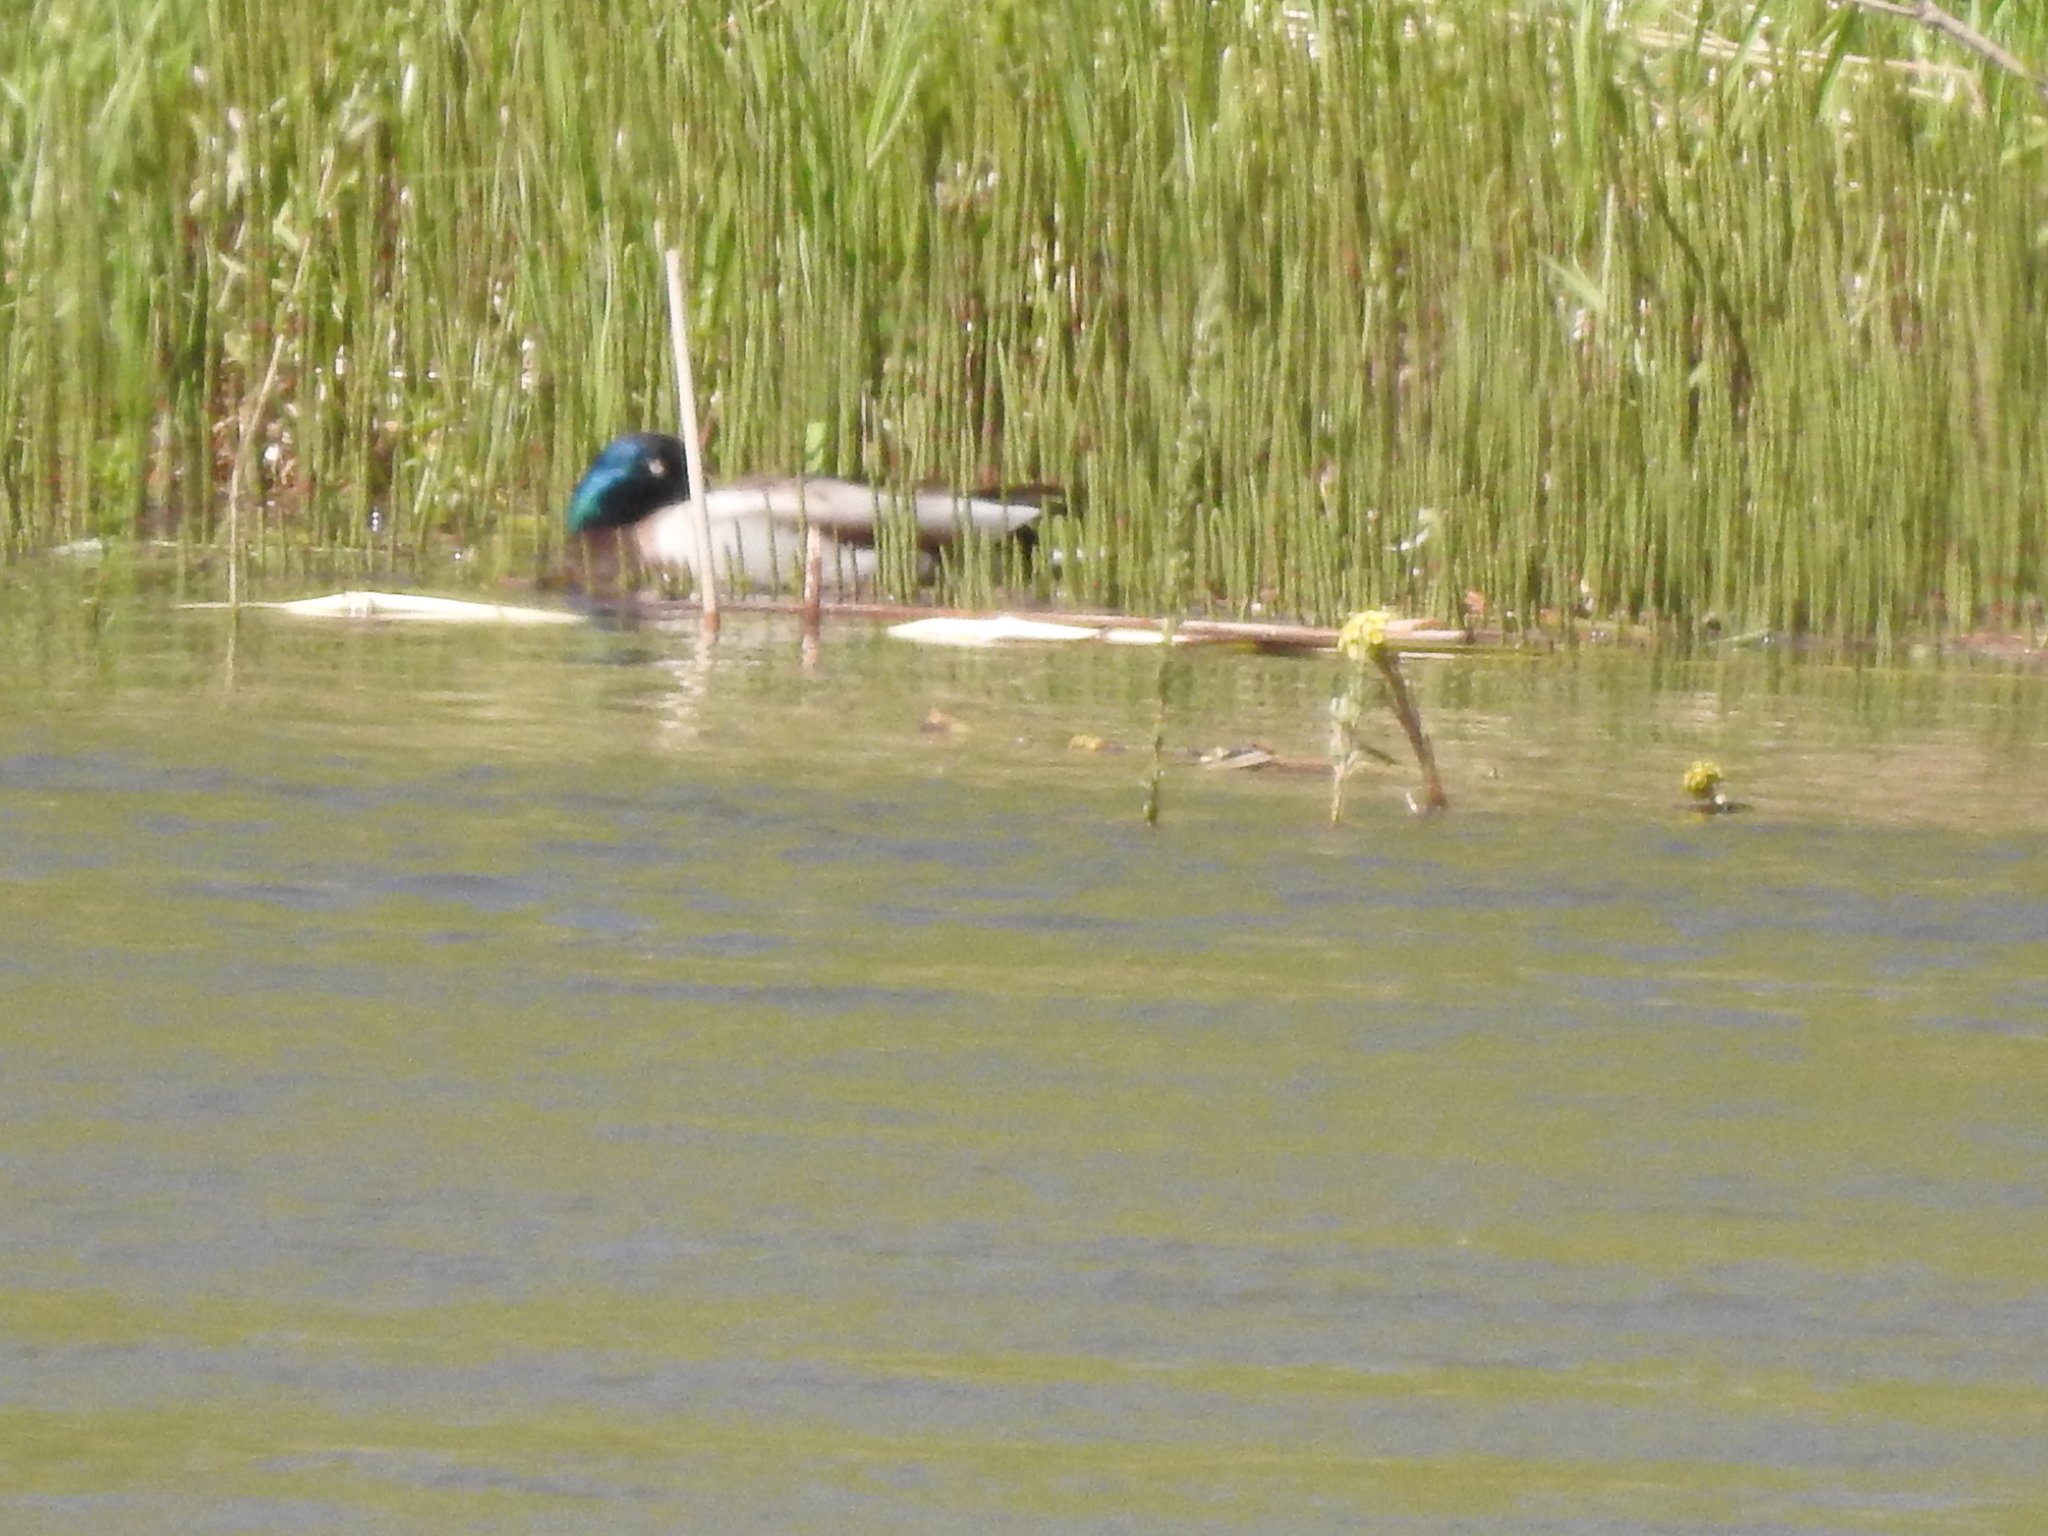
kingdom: Animalia
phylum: Chordata
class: Aves
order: Anseriformes
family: Anatidae
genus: Anas
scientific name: Anas platyrhynchos
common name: Mallard
